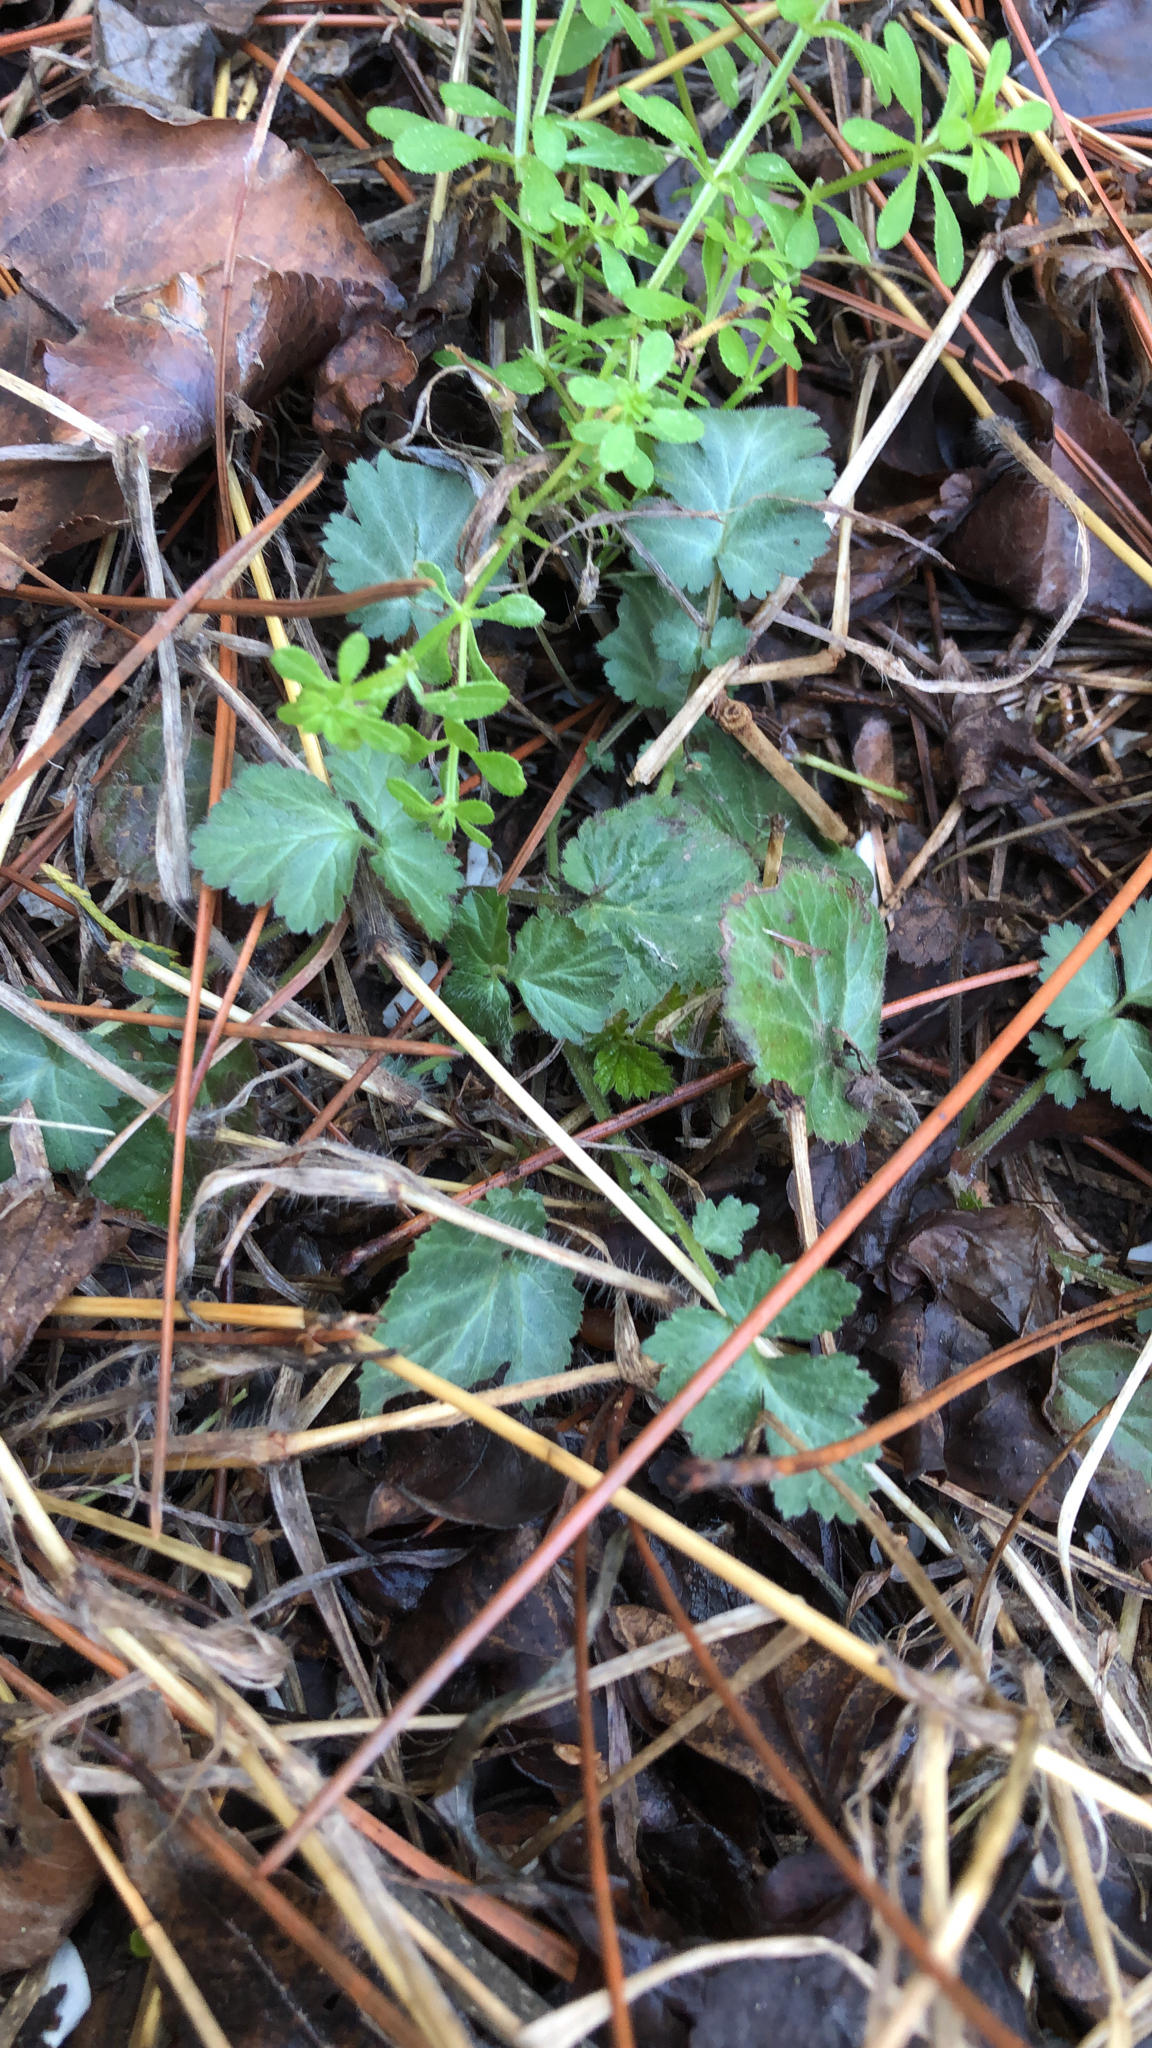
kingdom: Plantae
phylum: Tracheophyta
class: Magnoliopsida
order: Rosales
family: Rosaceae
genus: Geum
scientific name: Geum canadense
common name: White avens
